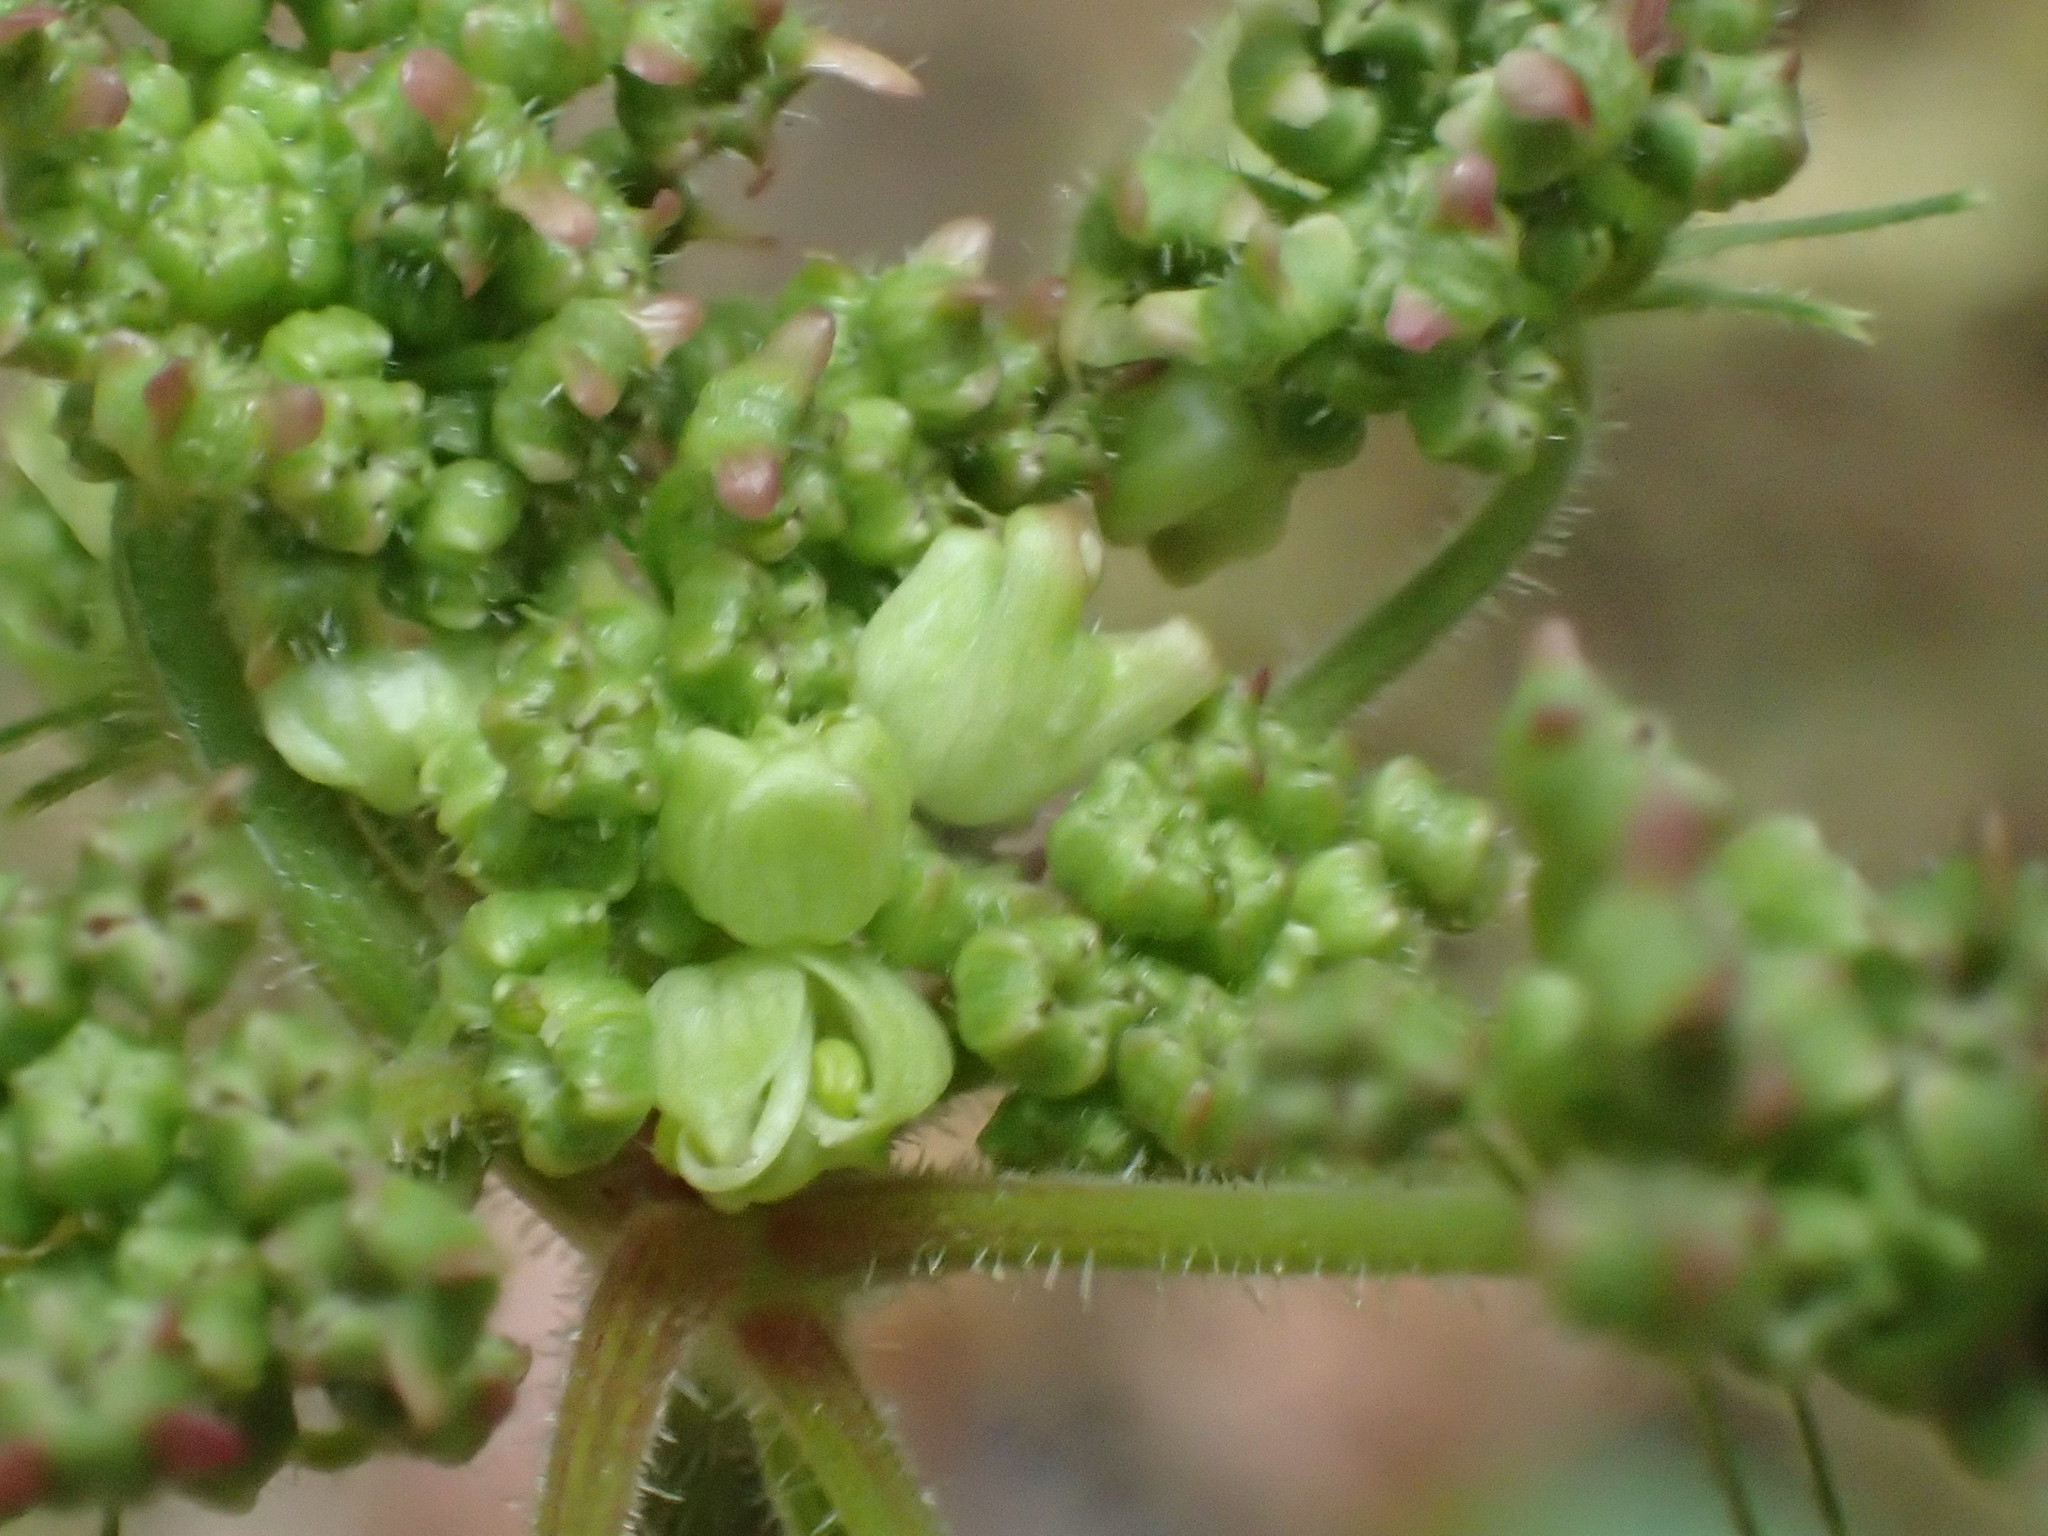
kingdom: Animalia
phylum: Arthropoda
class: Insecta
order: Diptera
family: Cecidomyiidae
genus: Contarinia
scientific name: Contarinia nicolayi
